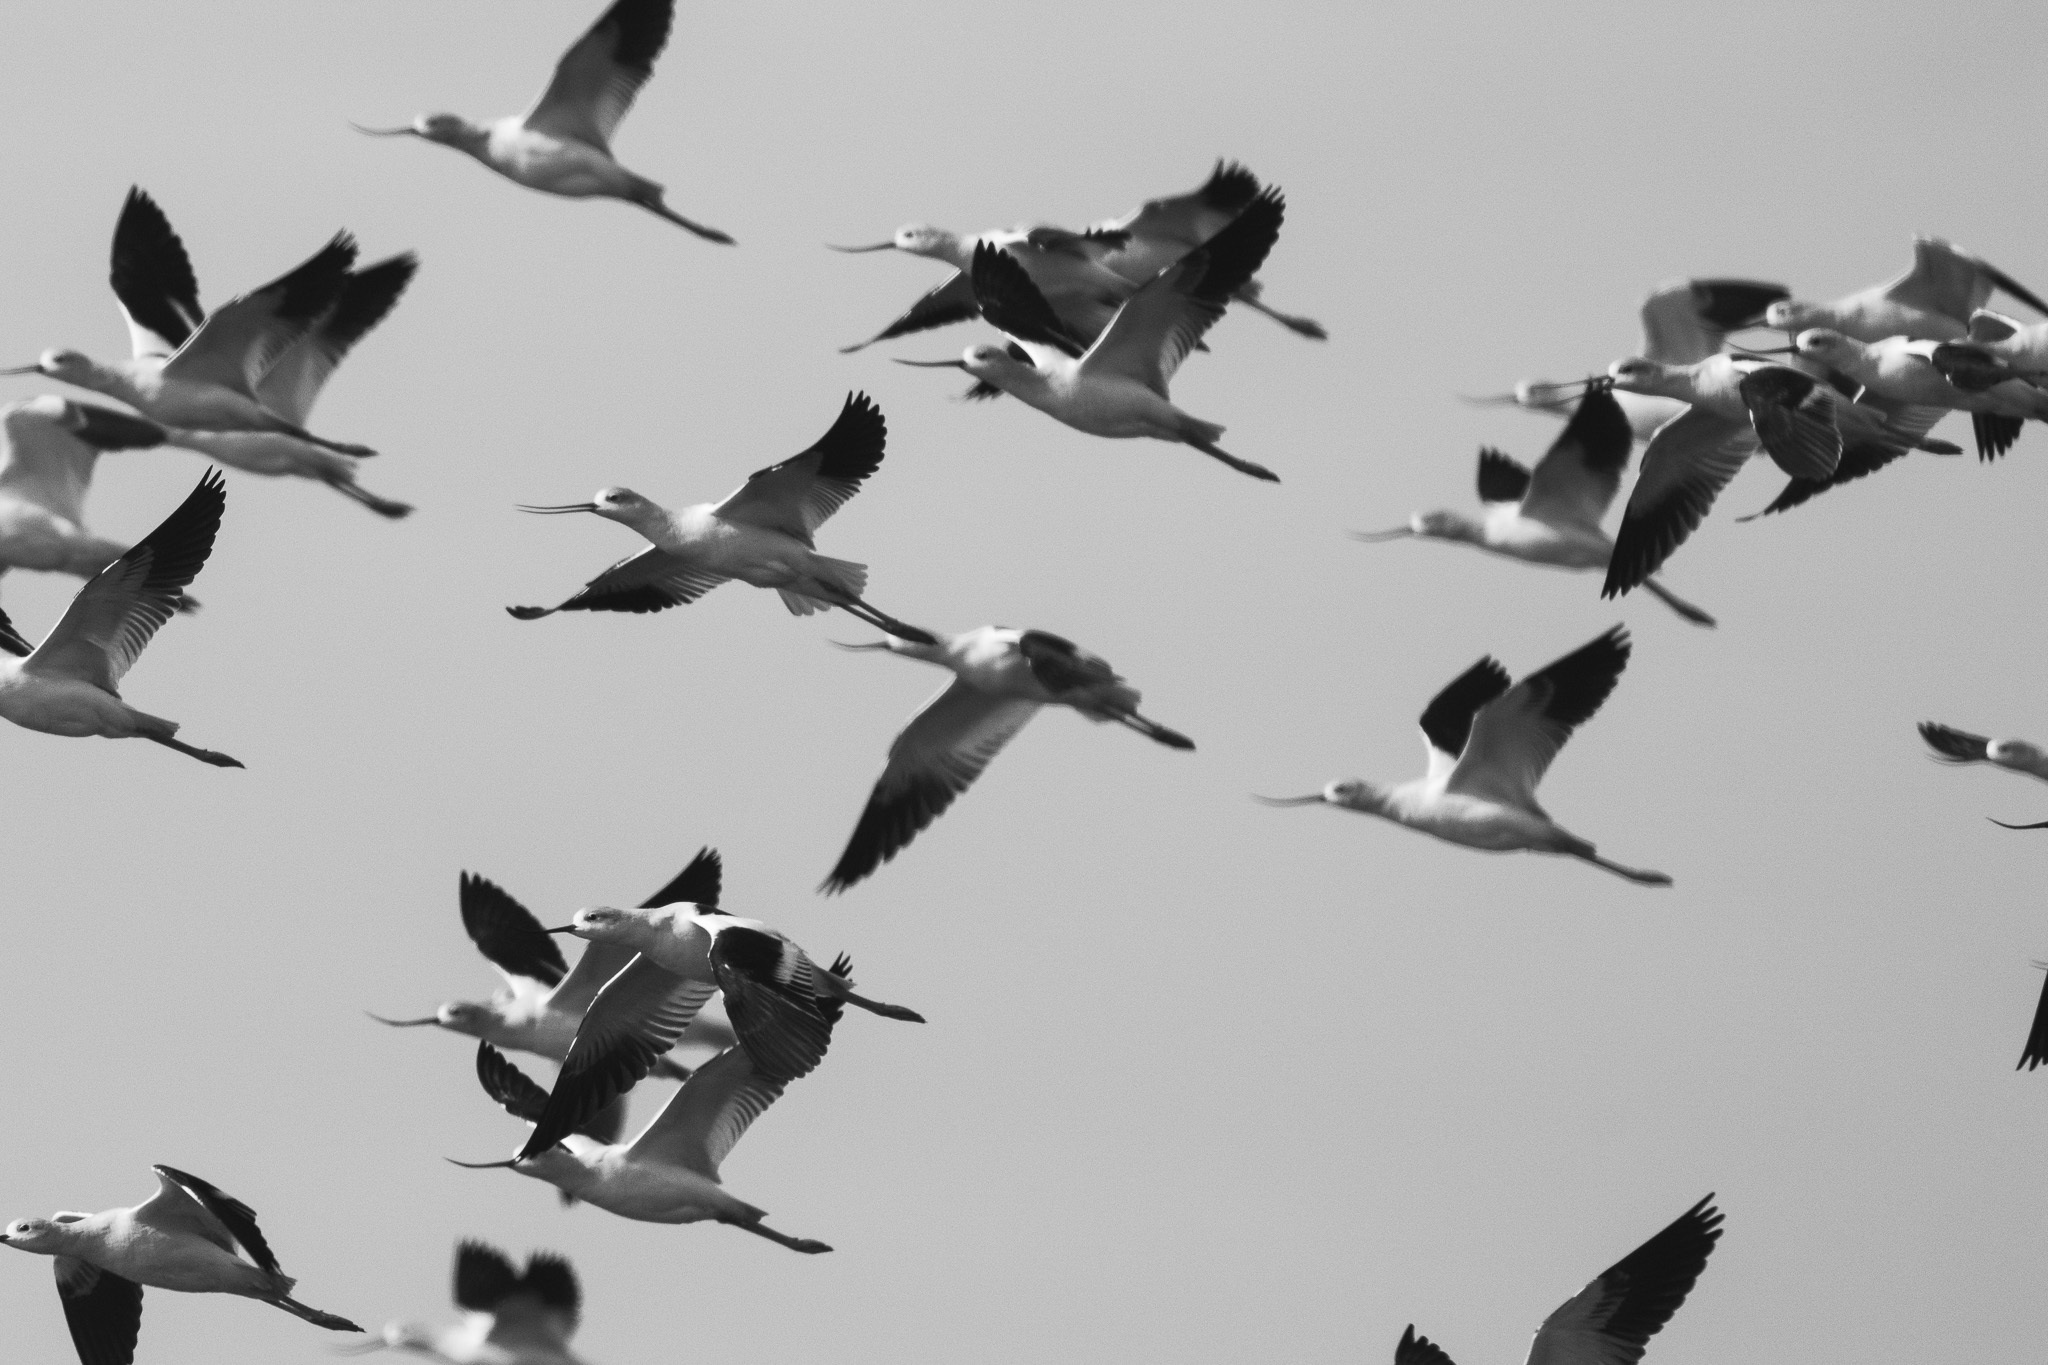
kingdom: Animalia
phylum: Chordata
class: Aves
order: Charadriiformes
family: Recurvirostridae
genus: Recurvirostra
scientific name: Recurvirostra americana
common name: American avocet
